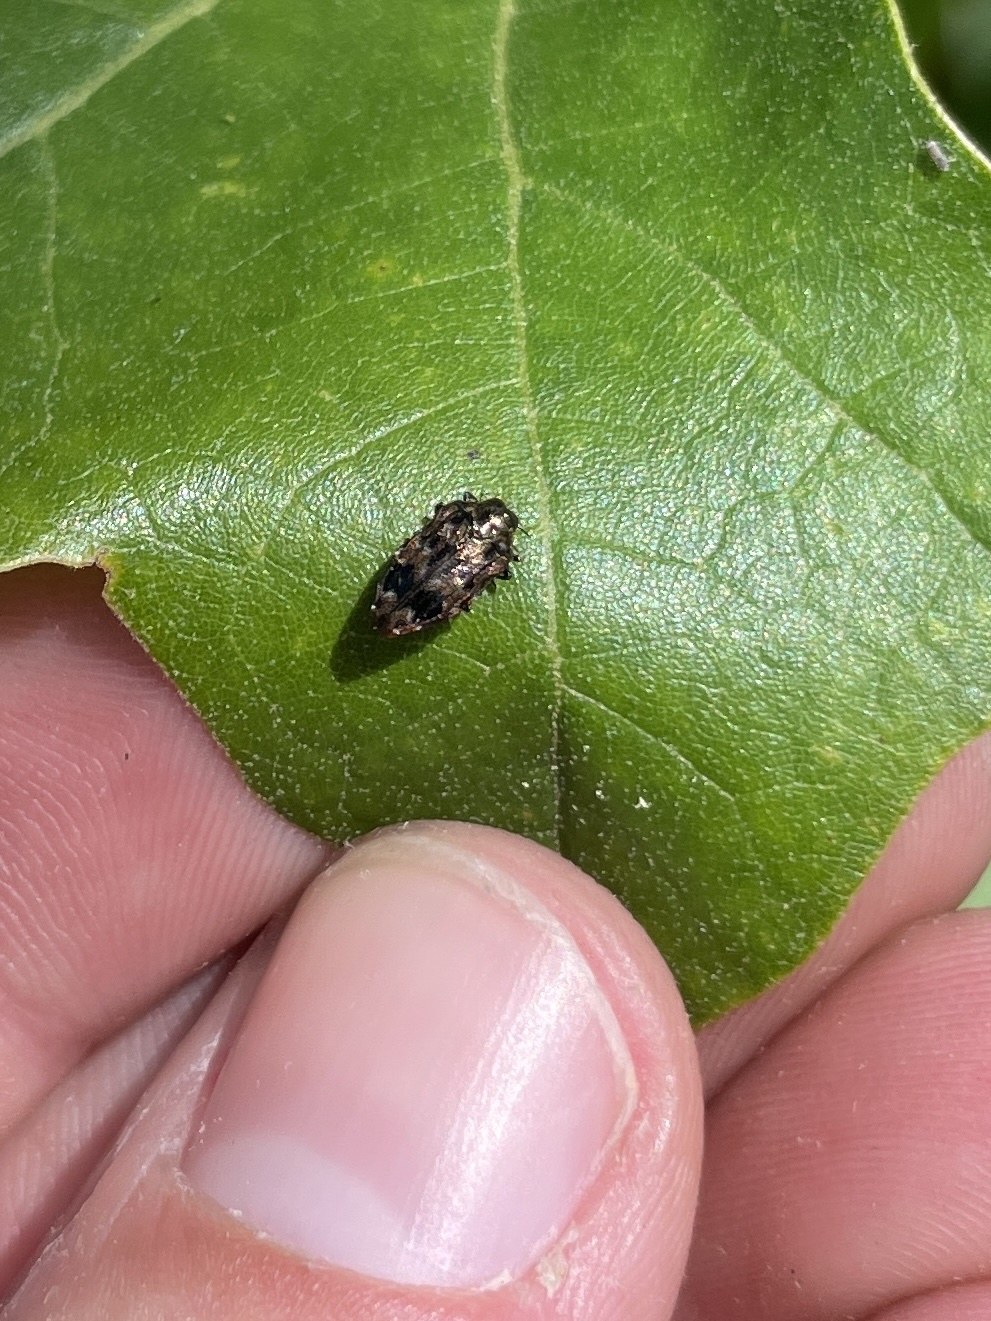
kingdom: Animalia
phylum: Arthropoda
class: Insecta
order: Coleoptera
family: Buprestidae
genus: Brachys
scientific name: Brachys ovatus
